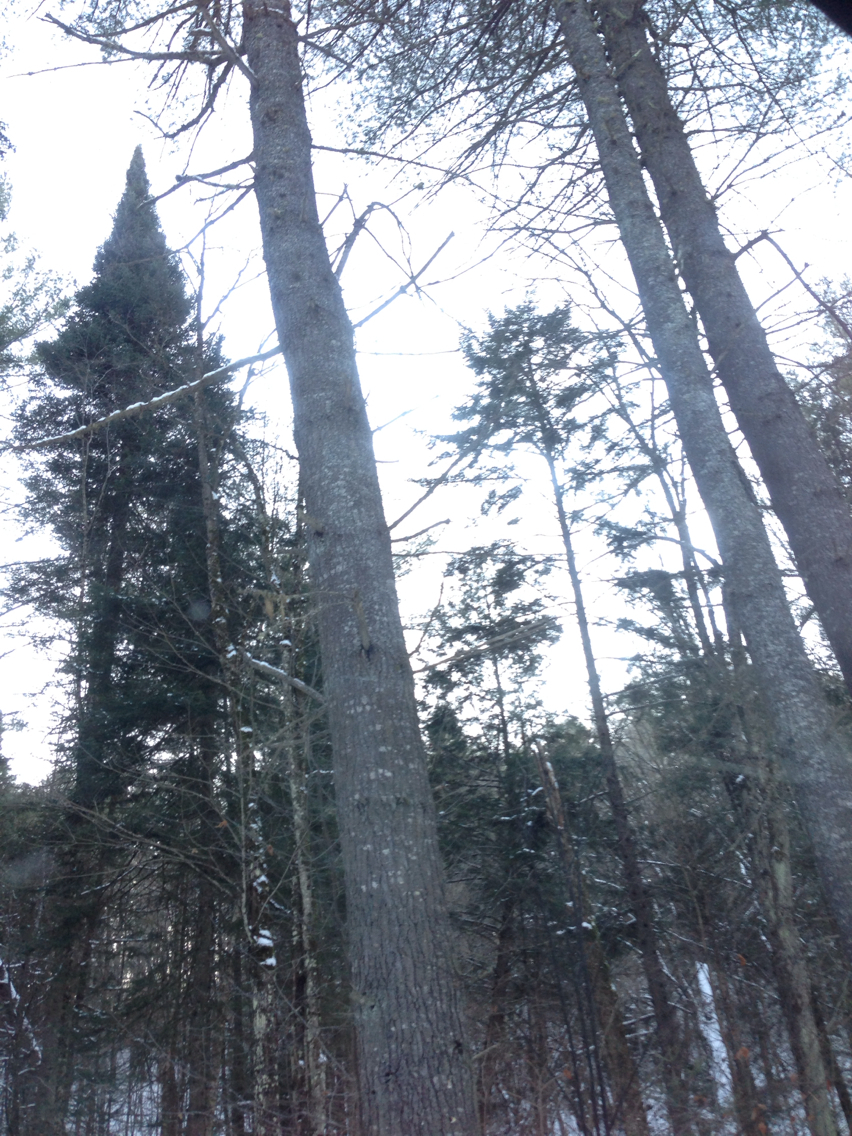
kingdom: Plantae
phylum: Tracheophyta
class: Pinopsida
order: Pinales
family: Pinaceae
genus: Pinus
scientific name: Pinus strobus
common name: Weymouth pine
